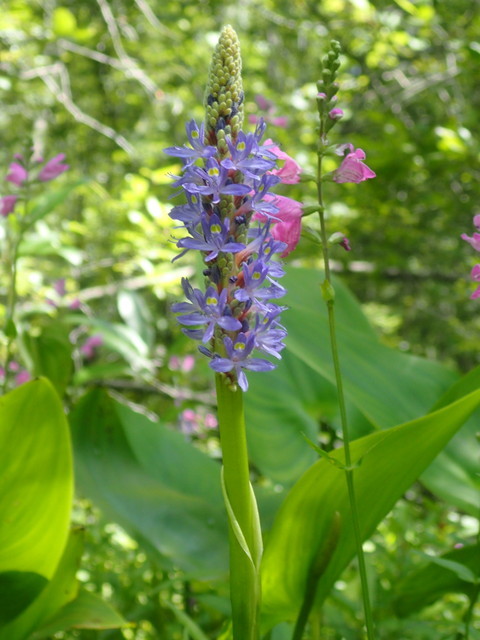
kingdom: Plantae
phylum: Tracheophyta
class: Liliopsida
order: Commelinales
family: Pontederiaceae
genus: Pontederia
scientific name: Pontederia cordata
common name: Pickerelweed
